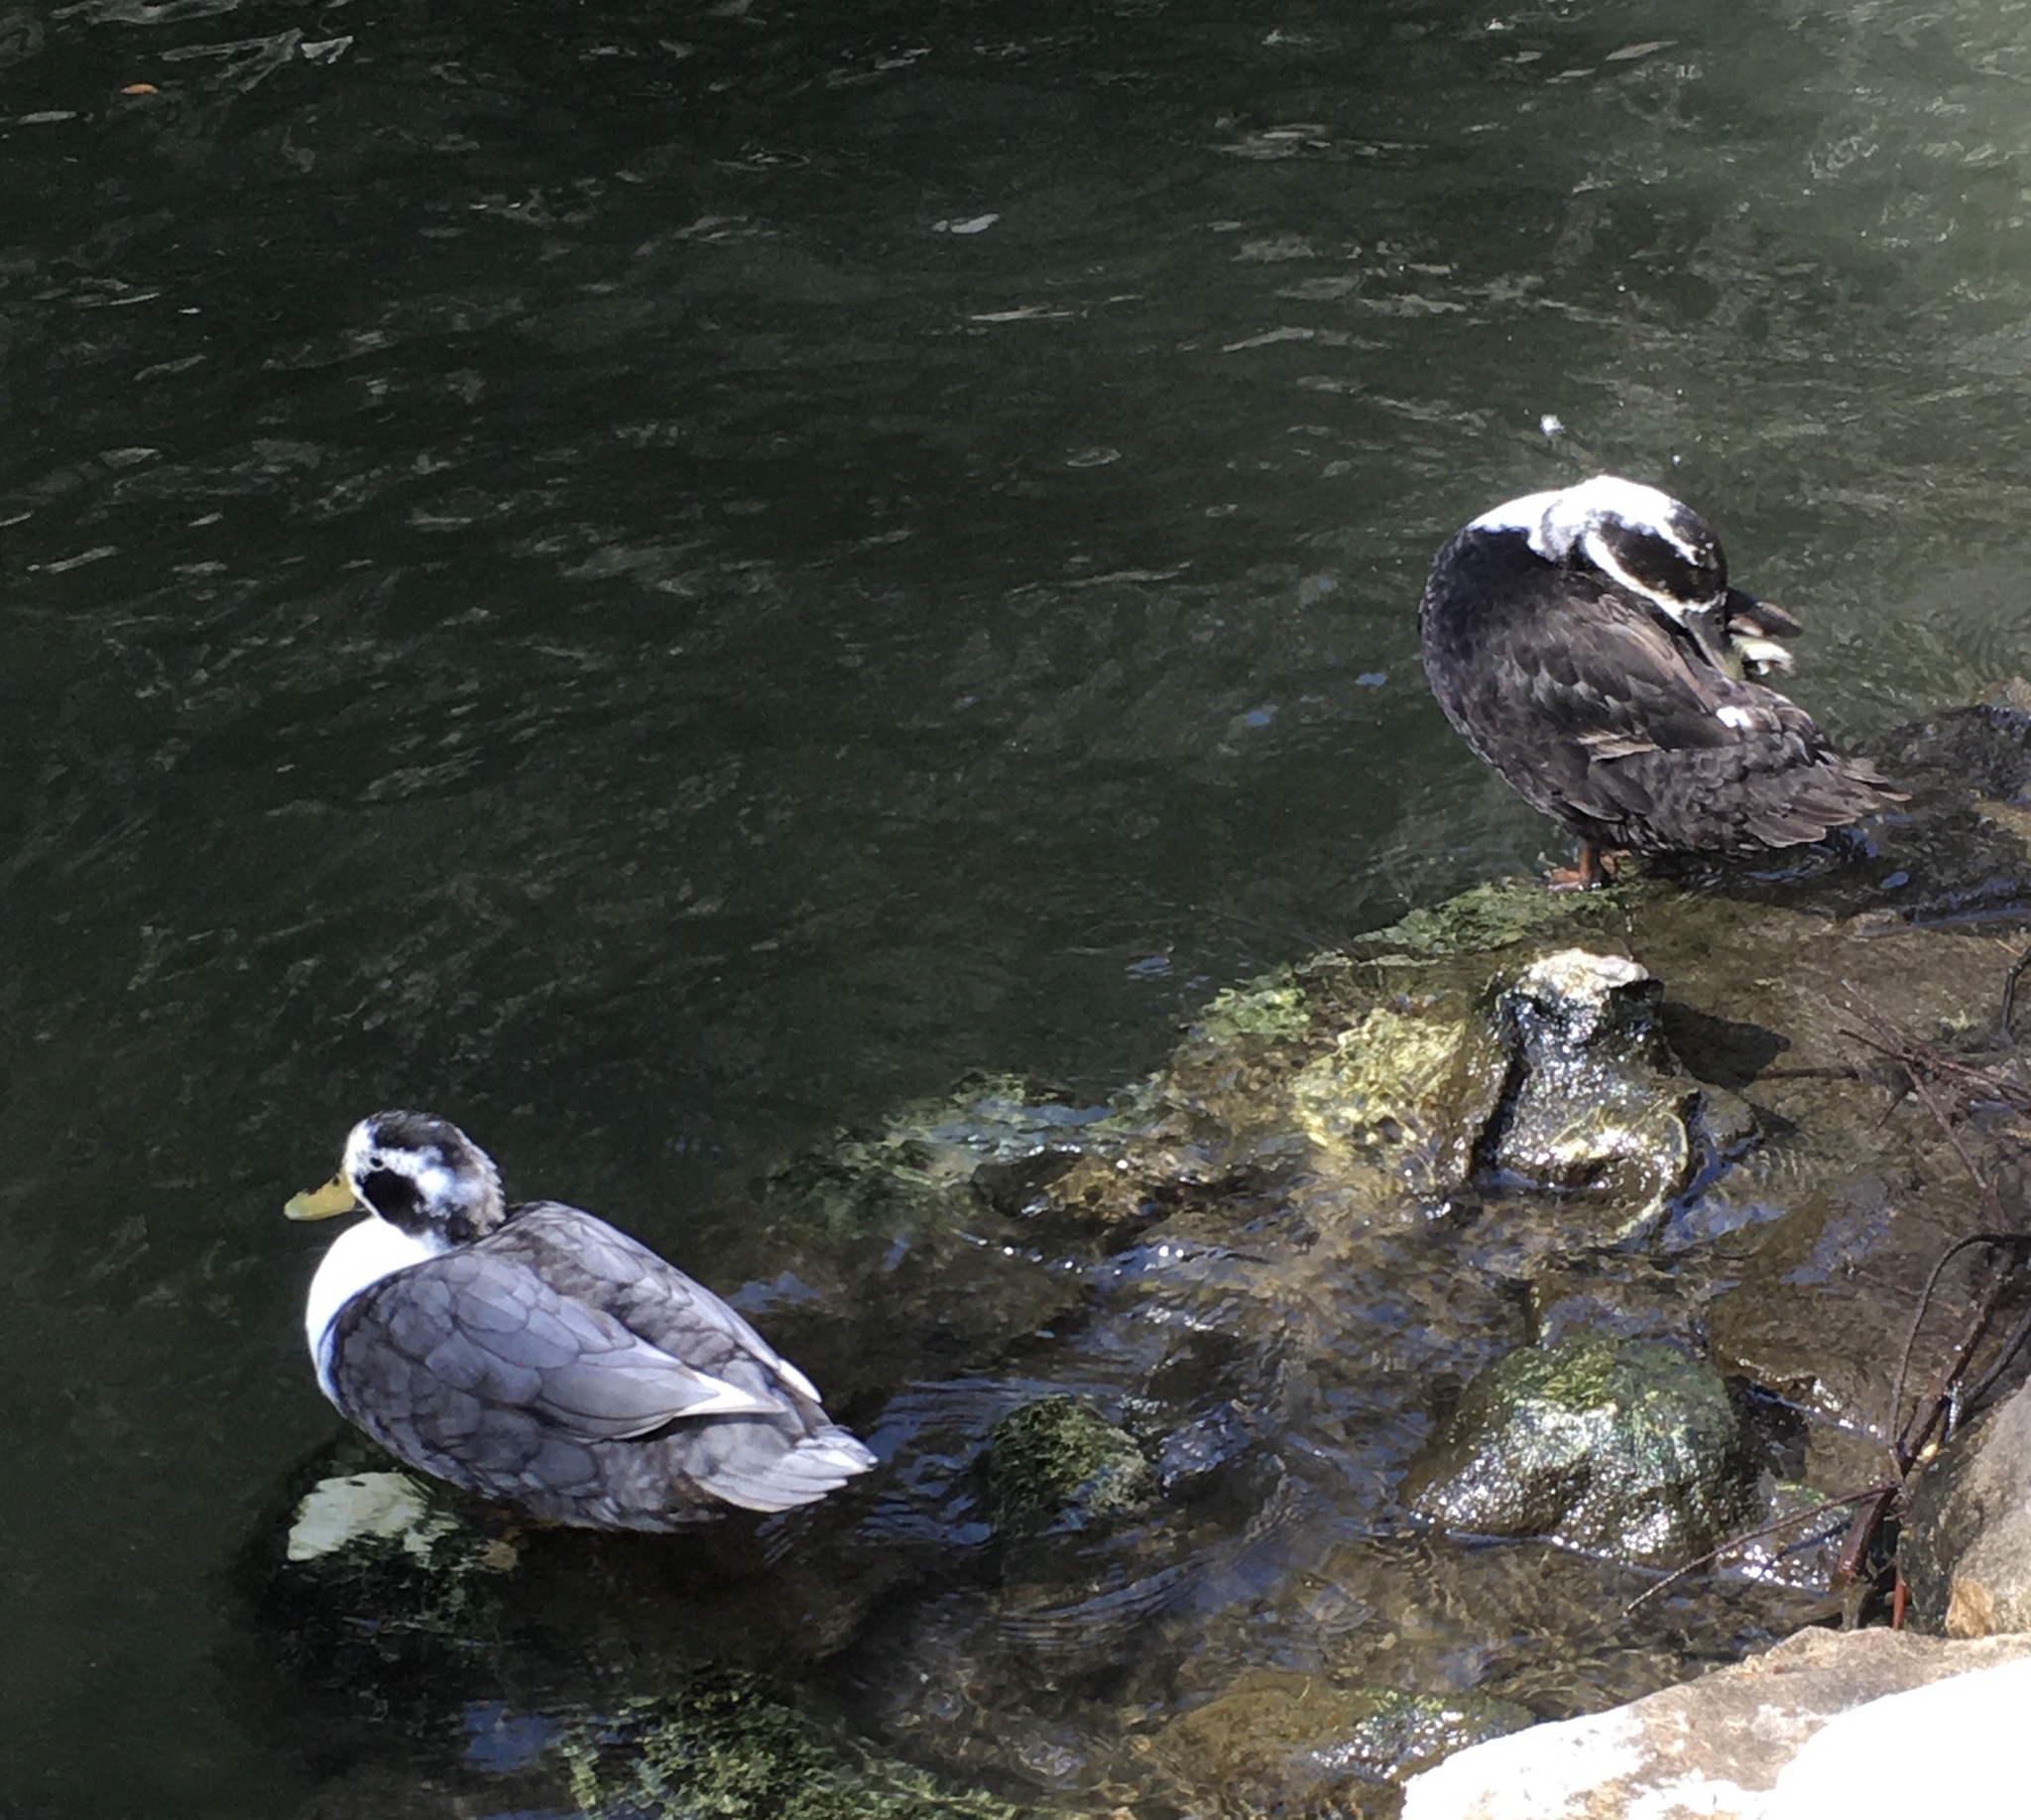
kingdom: Animalia
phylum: Chordata
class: Aves
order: Anseriformes
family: Anatidae
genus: Anas
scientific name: Anas platyrhynchos
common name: Mallard
